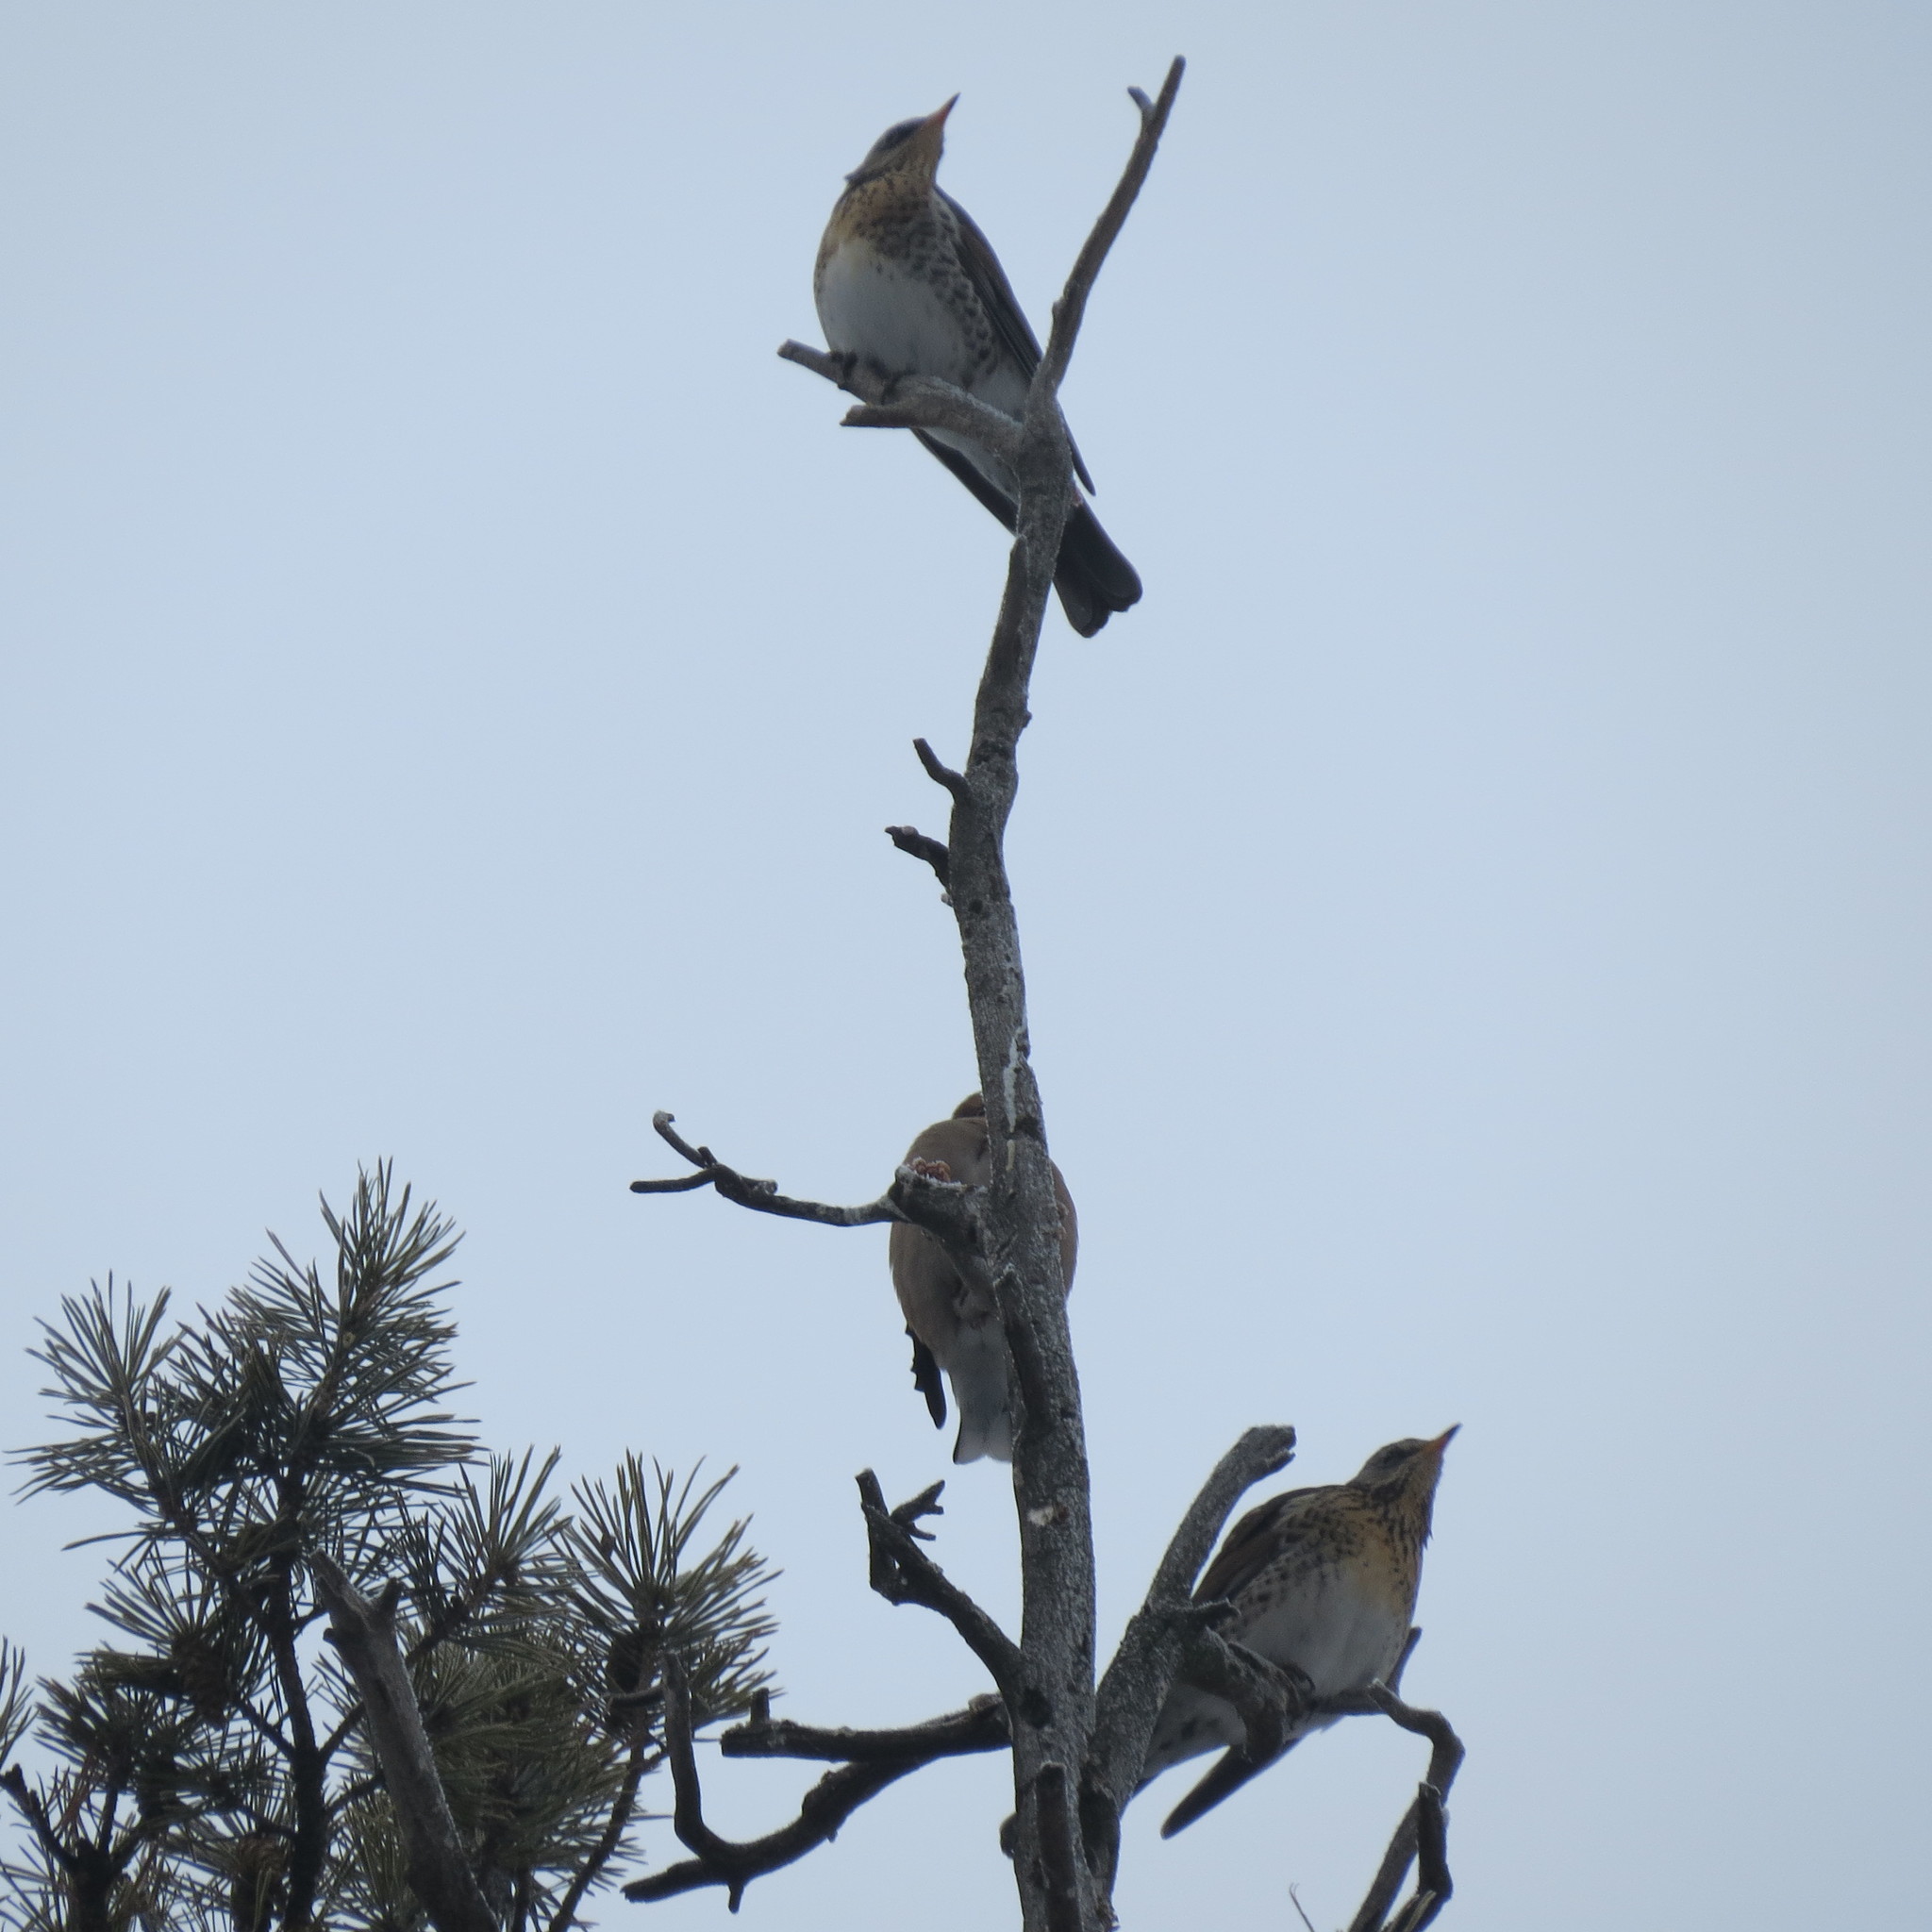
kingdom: Animalia
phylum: Chordata
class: Aves
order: Passeriformes
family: Turdidae
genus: Turdus
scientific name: Turdus pilaris
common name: Fieldfare
